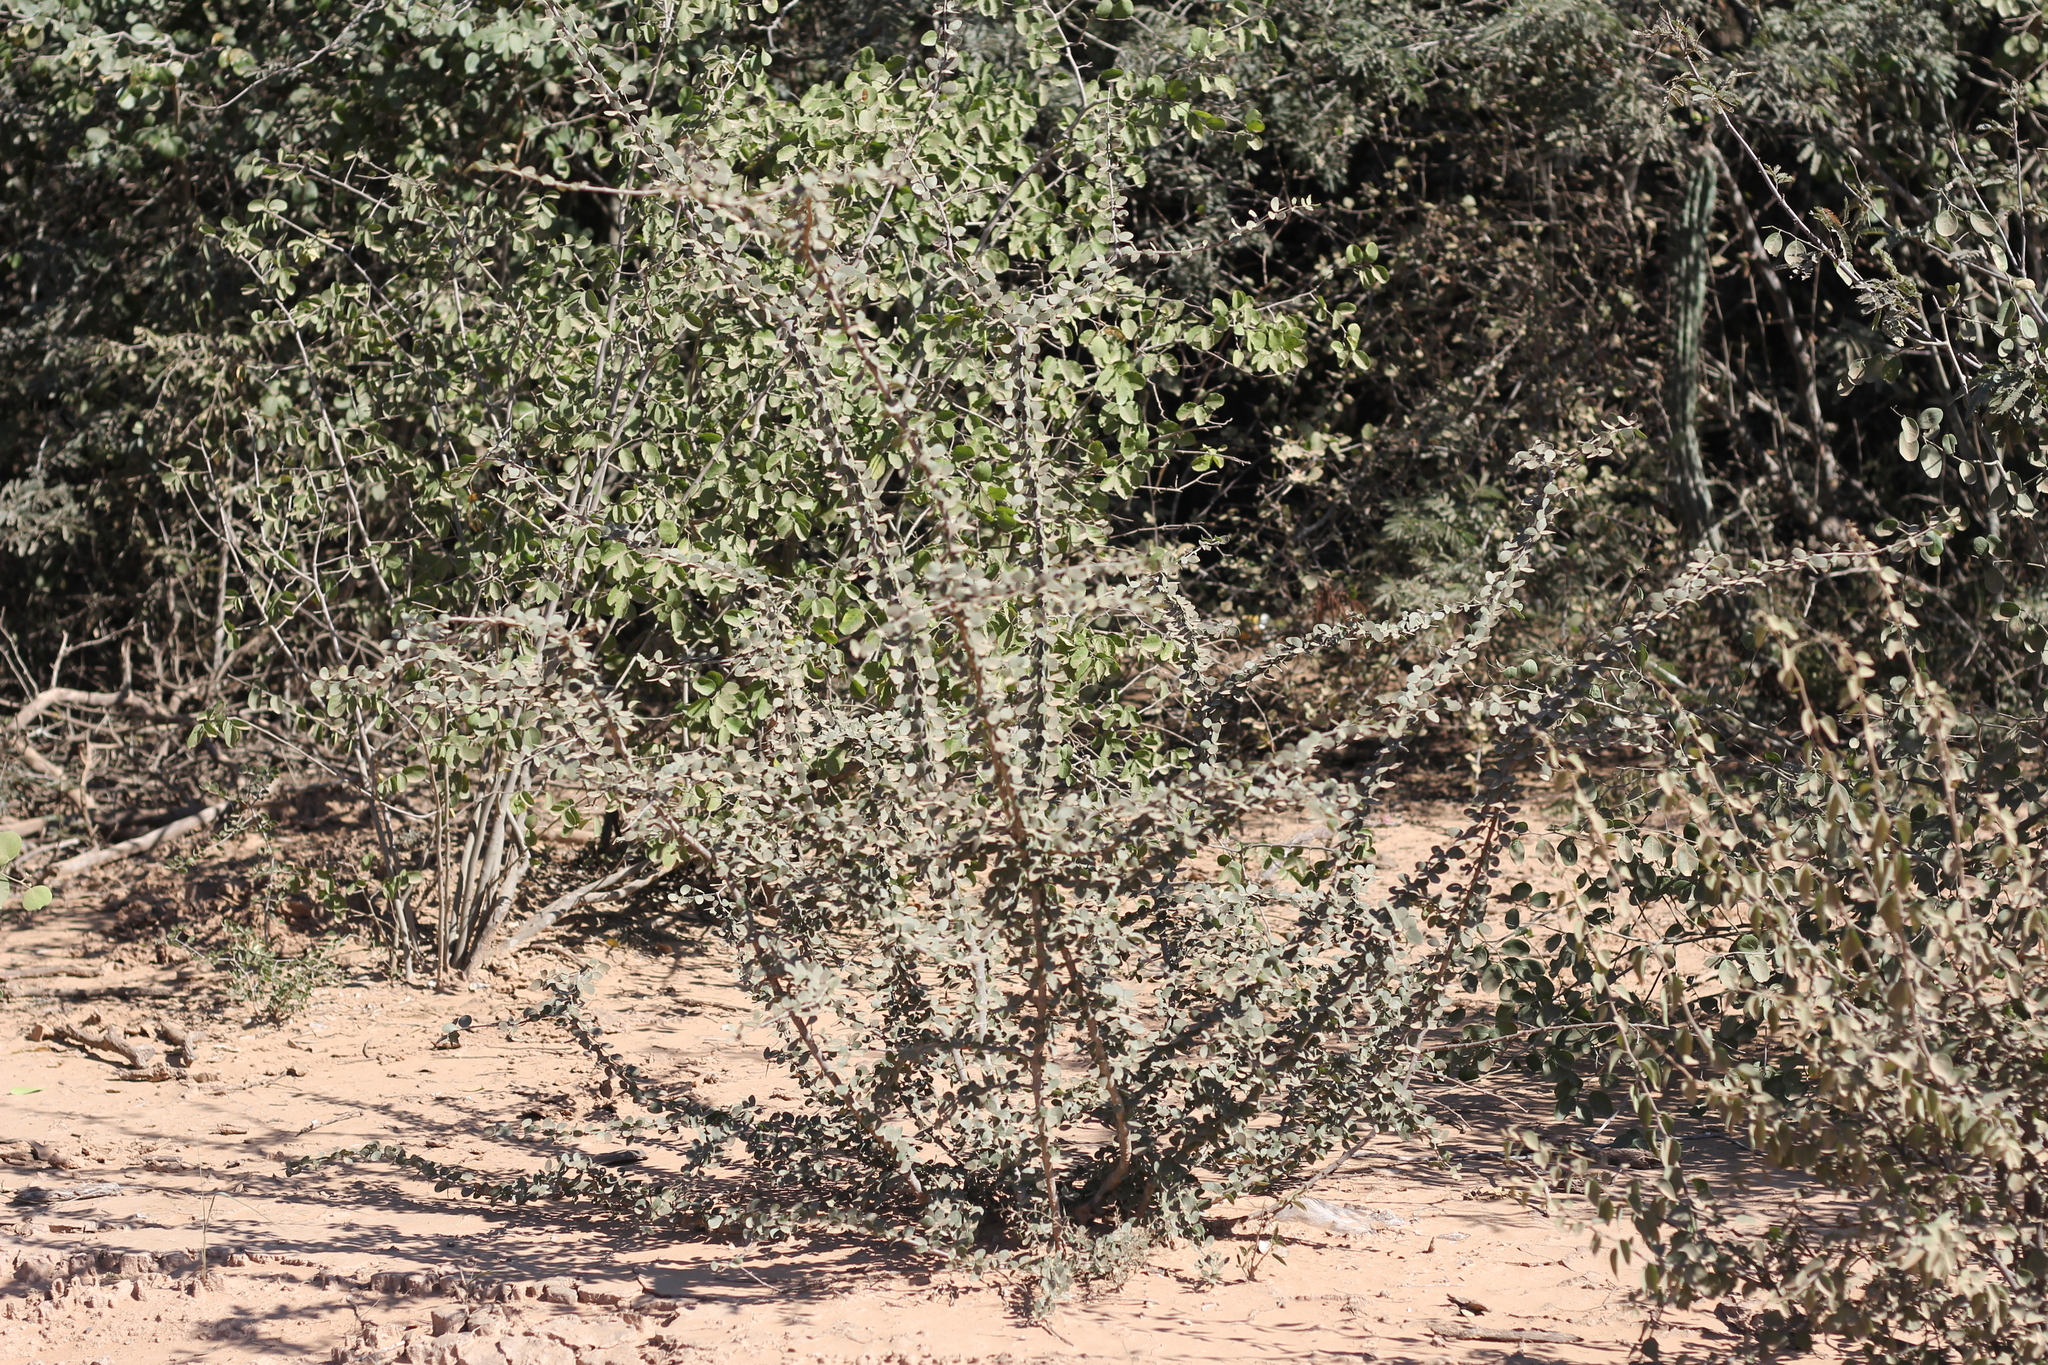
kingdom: Plantae
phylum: Tracheophyta
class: Magnoliopsida
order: Zygophyllales
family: Zygophyllaceae
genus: Gonopterodendron
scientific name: Gonopterodendron sarmientoi
